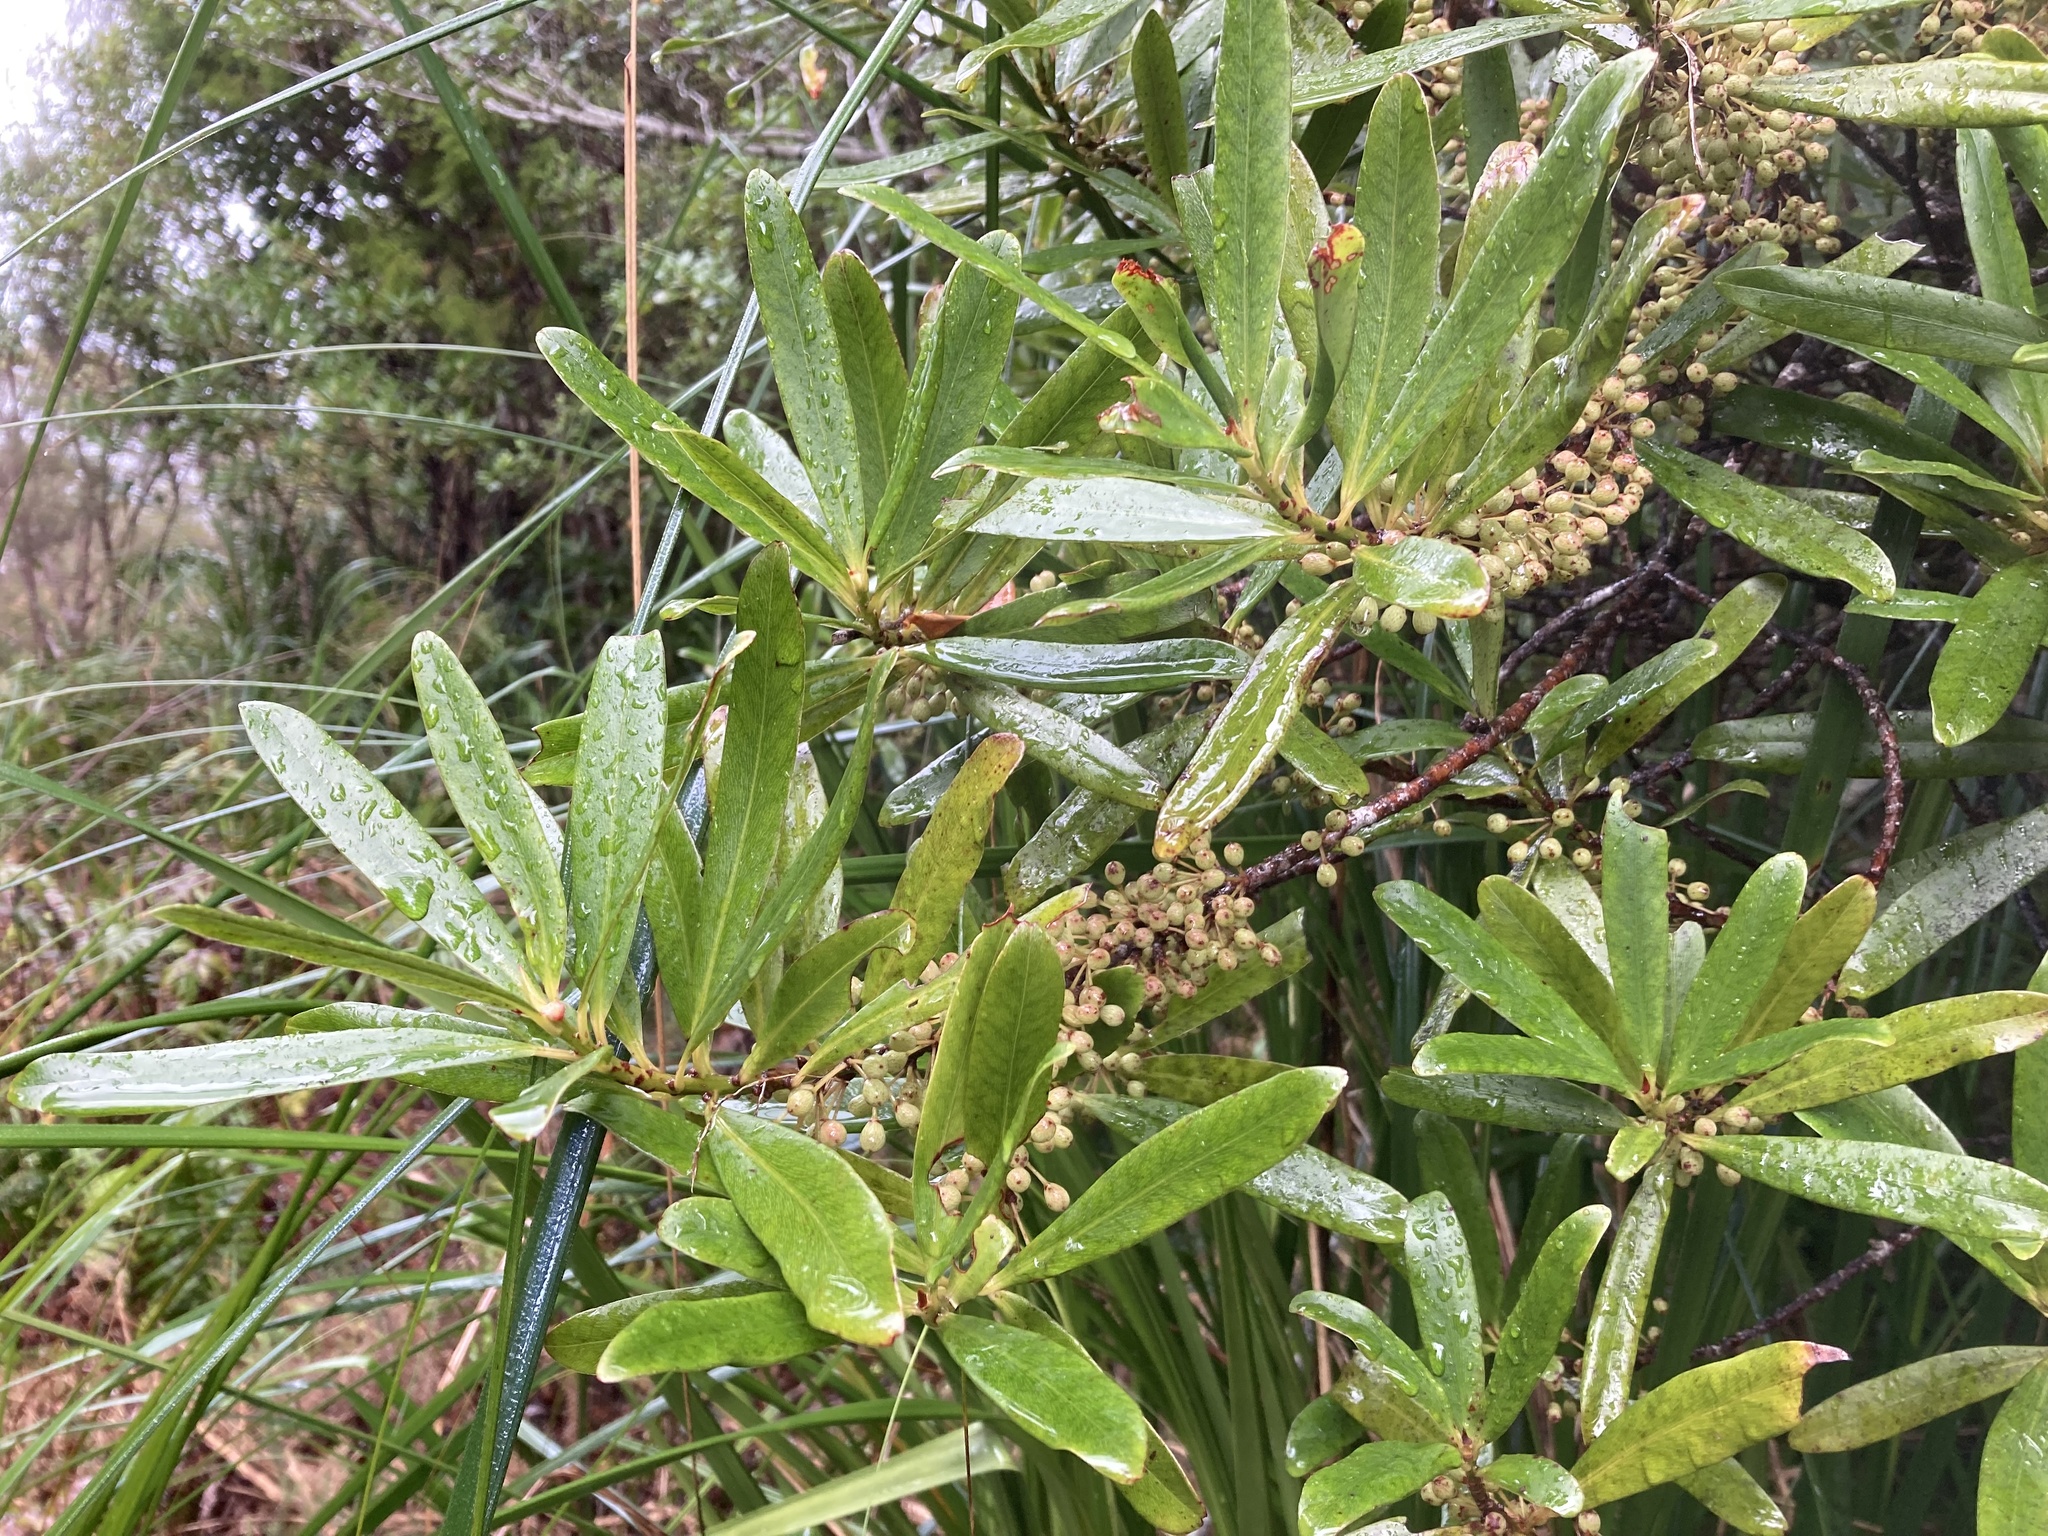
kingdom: Plantae
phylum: Tracheophyta
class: Magnoliopsida
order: Ericales
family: Primulaceae
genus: Myrsine
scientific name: Myrsine salicina
